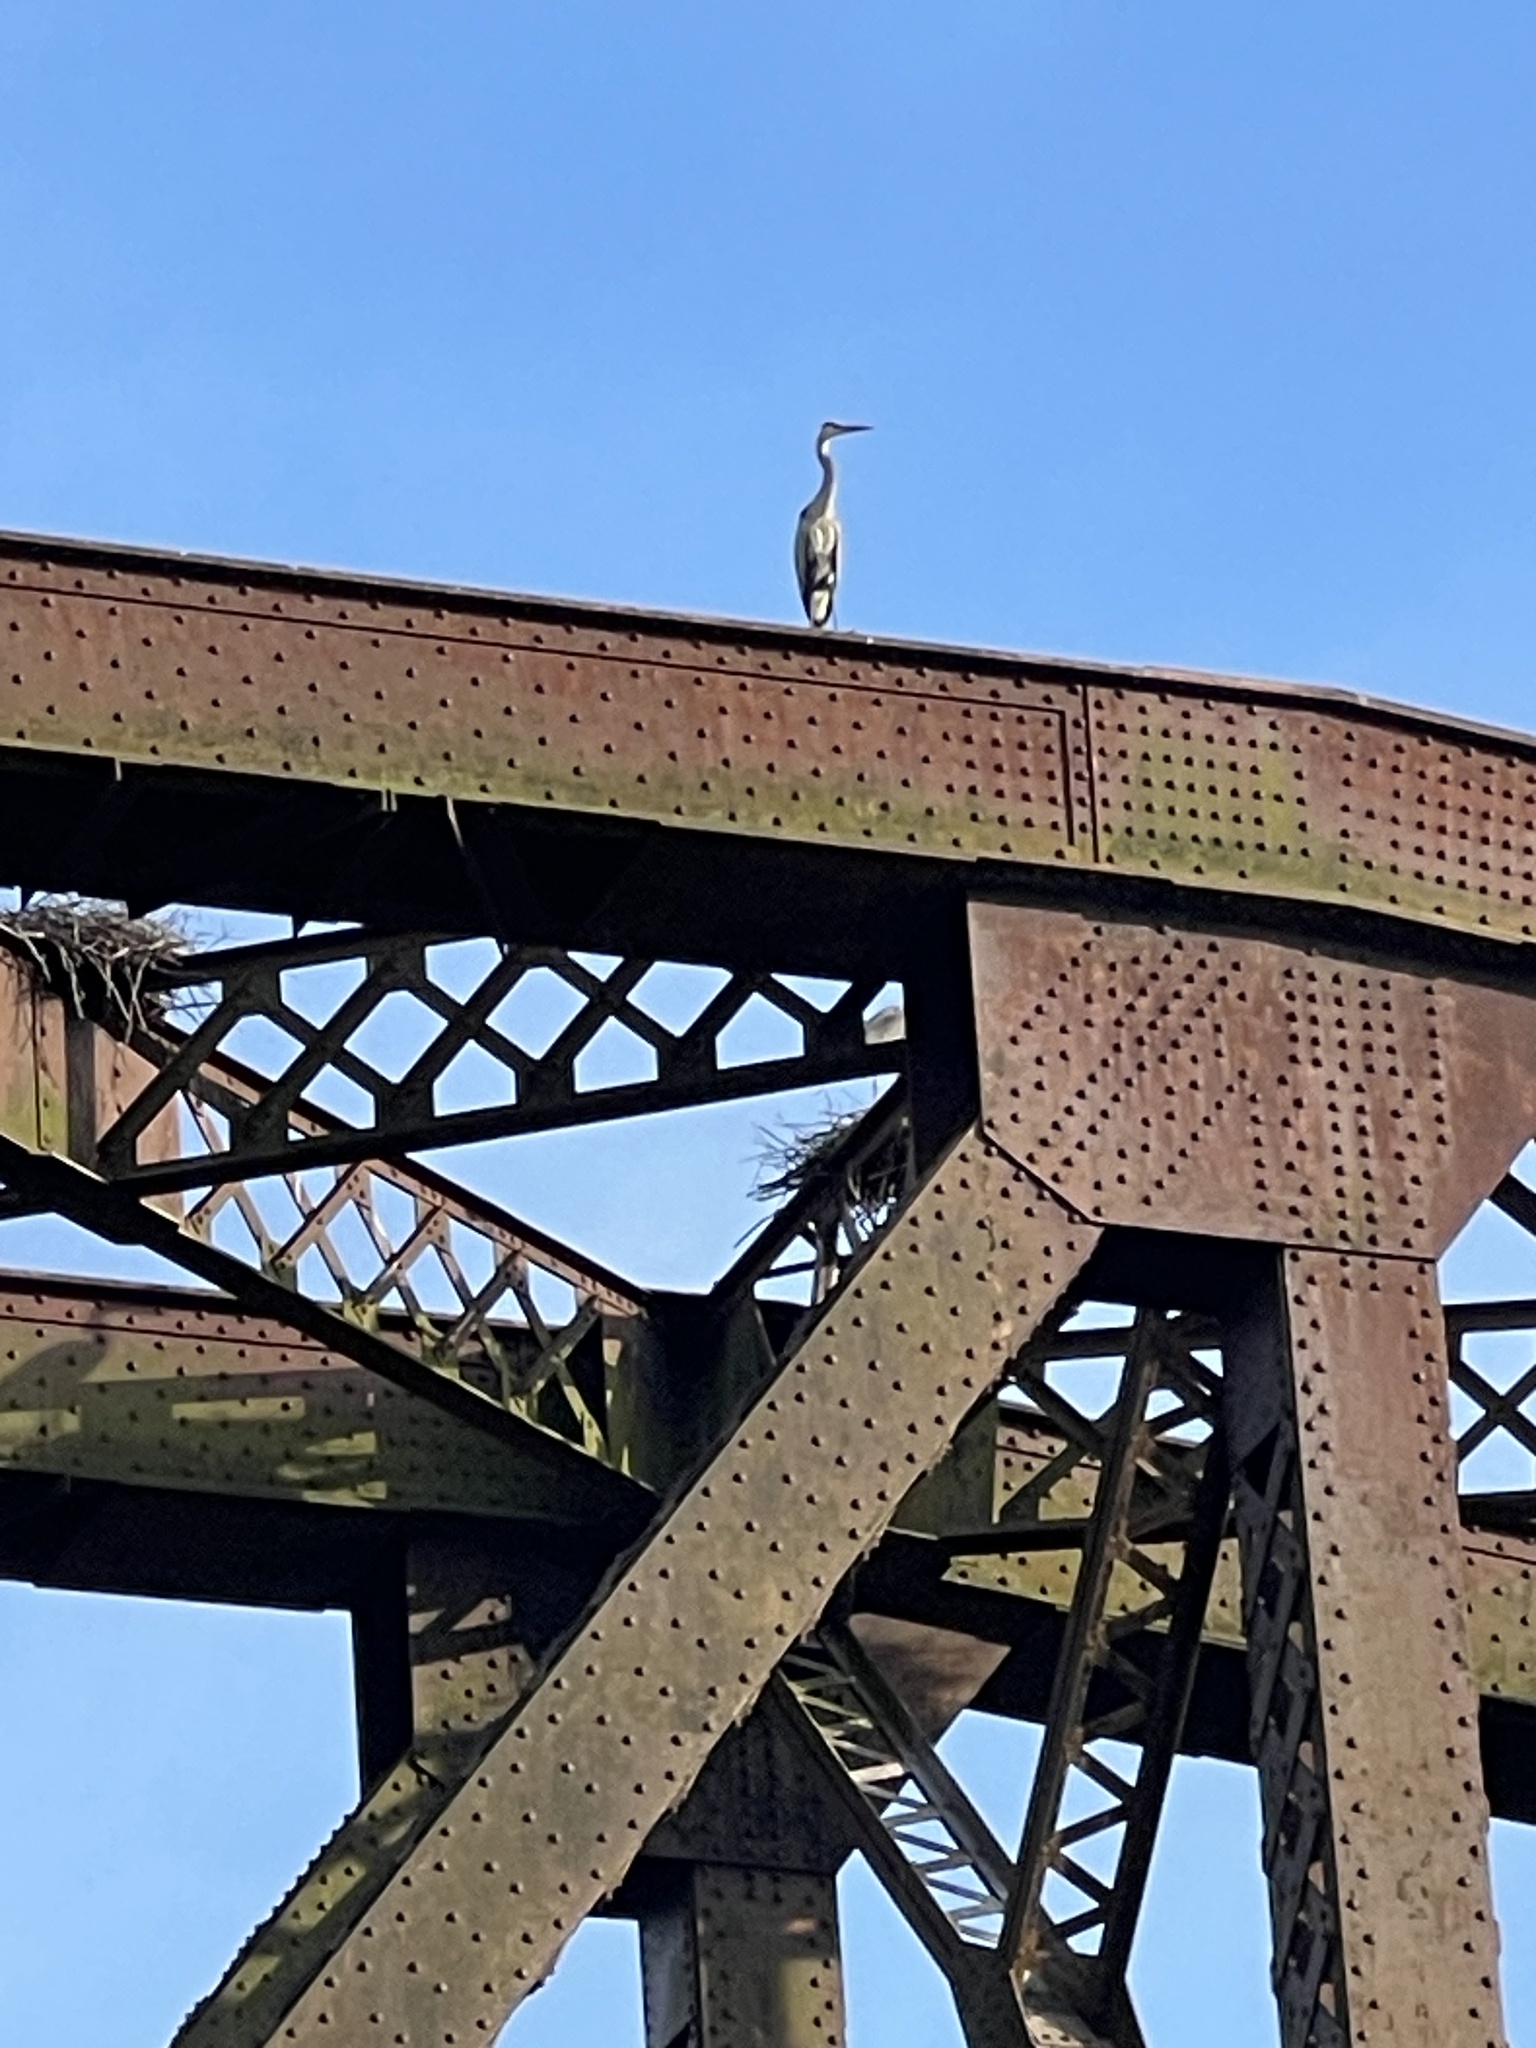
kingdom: Animalia
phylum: Chordata
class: Aves
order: Pelecaniformes
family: Ardeidae
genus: Ardea
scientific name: Ardea herodias
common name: Great blue heron
